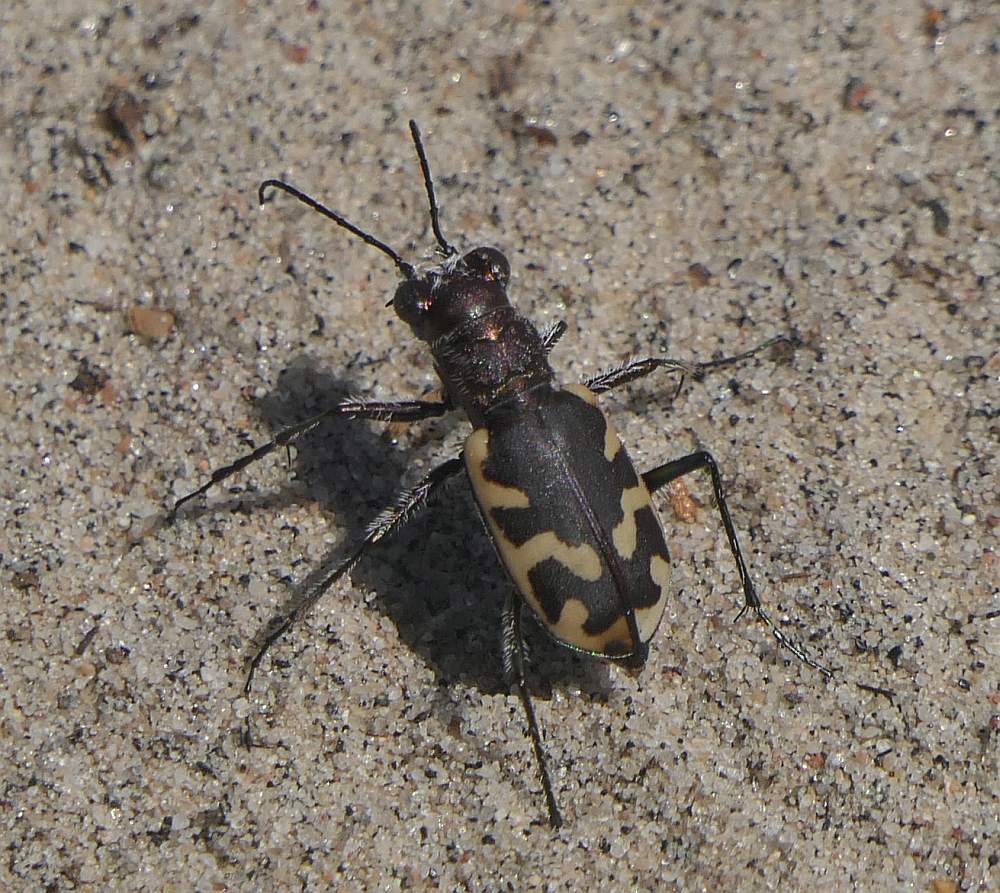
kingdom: Animalia
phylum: Arthropoda
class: Insecta
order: Coleoptera
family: Carabidae
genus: Cicindela
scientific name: Cicindela formosa
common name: Big sand tiger beetle
